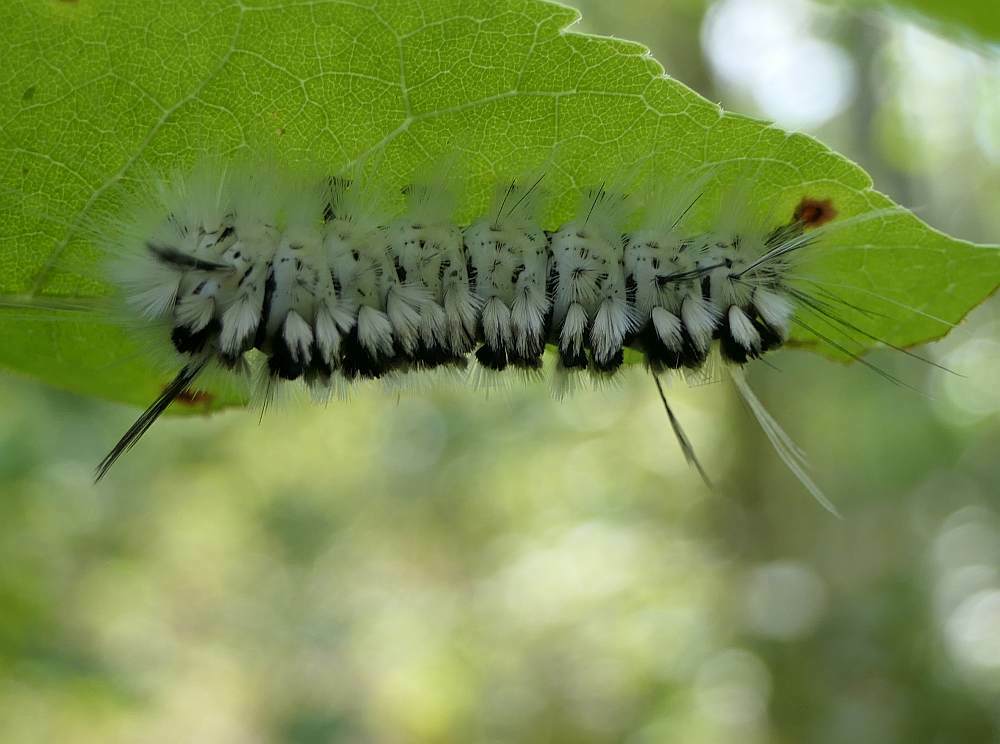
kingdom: Animalia
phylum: Arthropoda
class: Insecta
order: Lepidoptera
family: Erebidae
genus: Lophocampa
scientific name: Lophocampa caryae
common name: Hickory tussock moth
